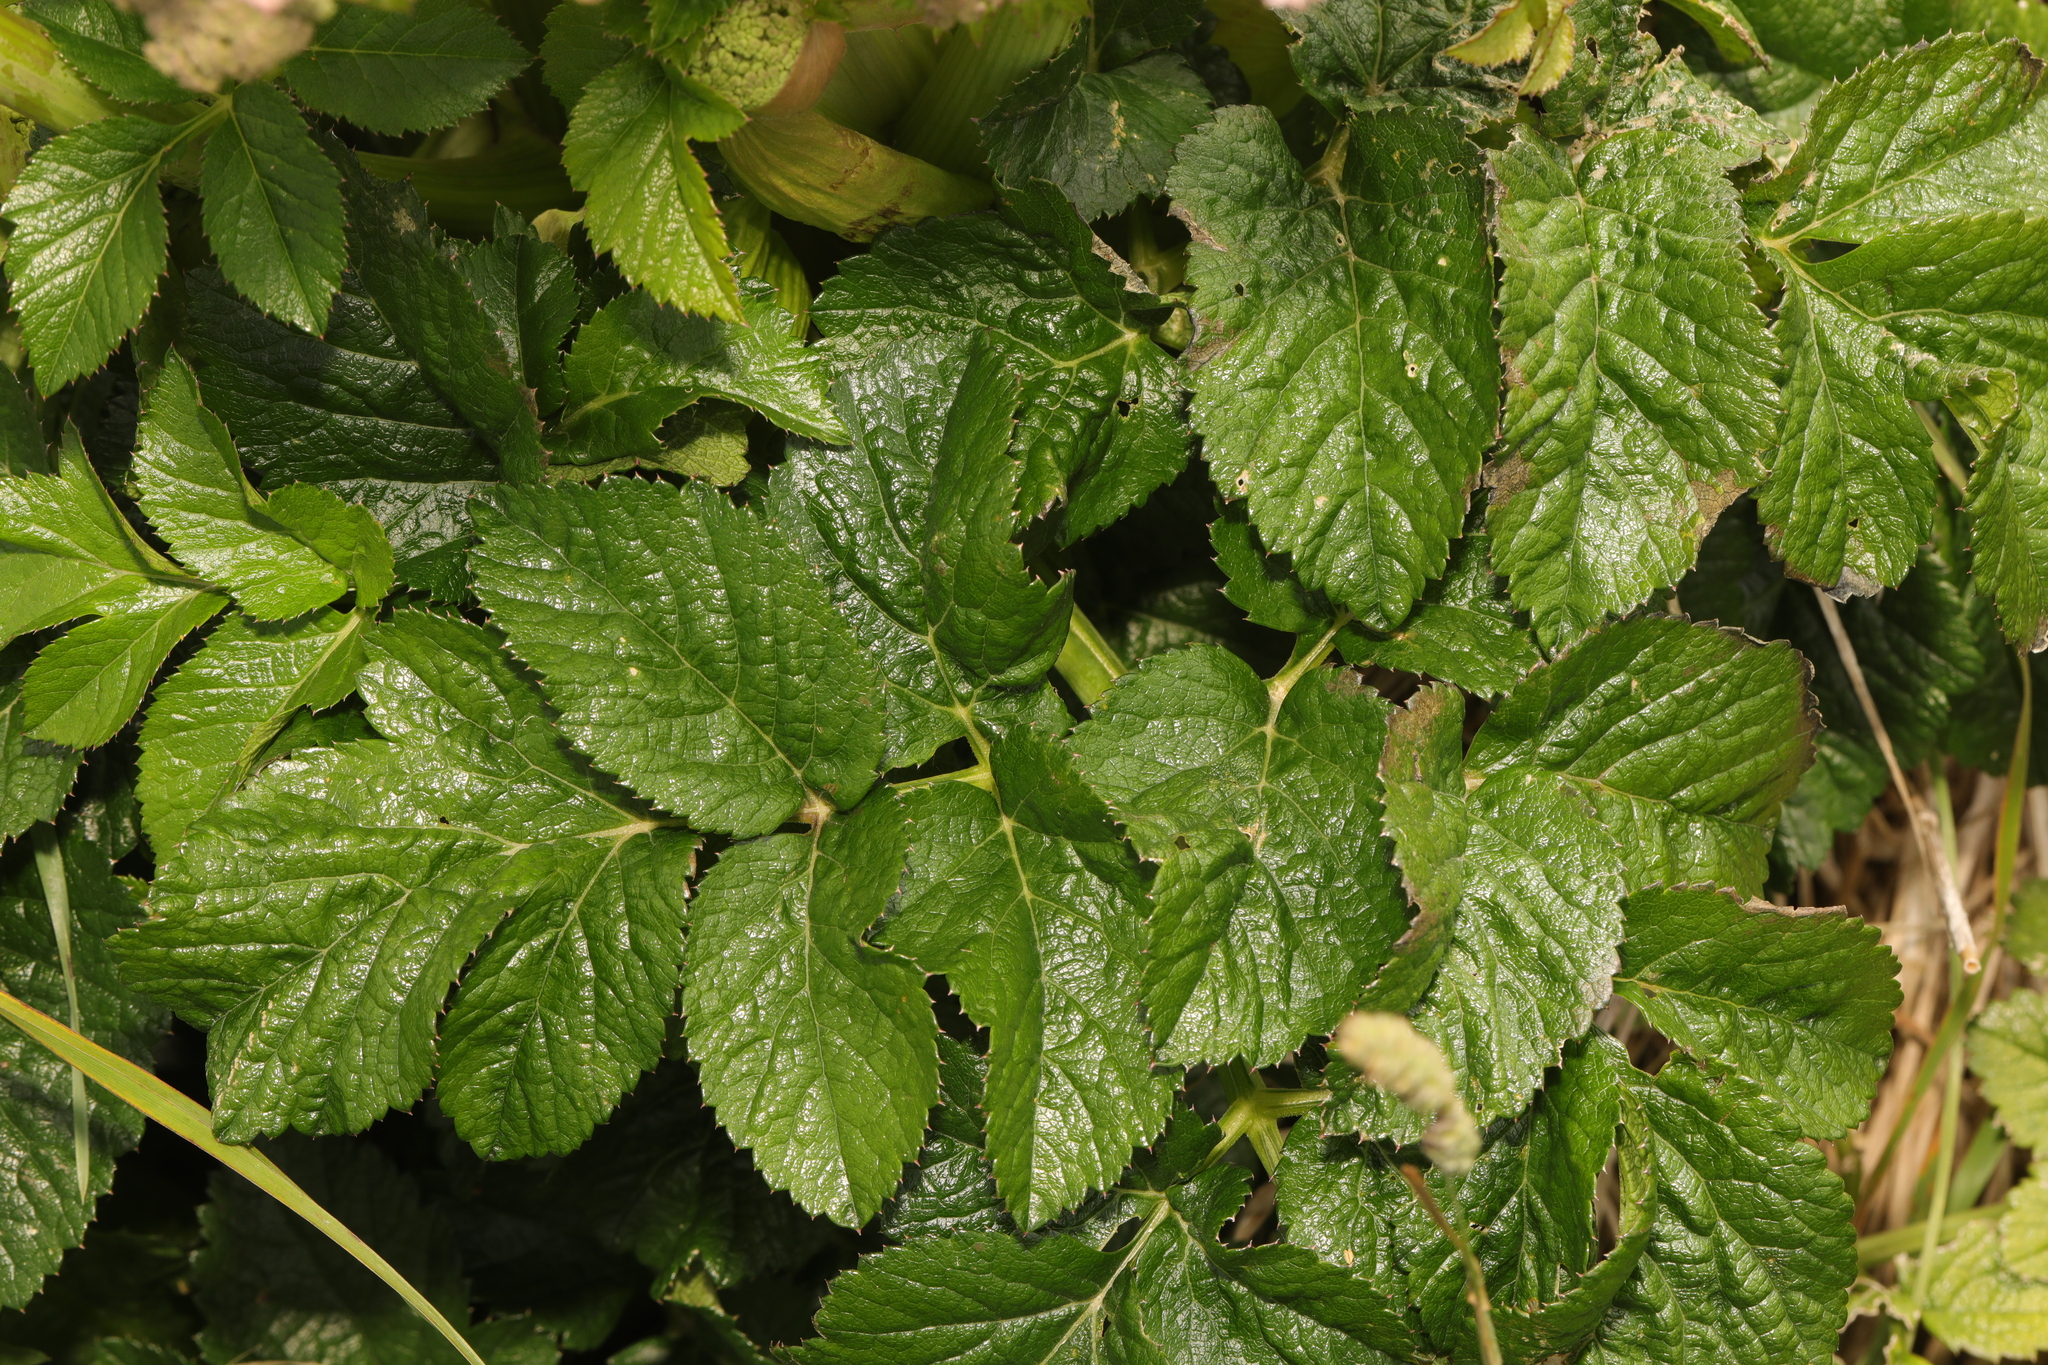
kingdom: Plantae
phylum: Tracheophyta
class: Magnoliopsida
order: Apiales
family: Apiaceae
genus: Angelica
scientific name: Angelica sylvestris
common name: Wild angelica
